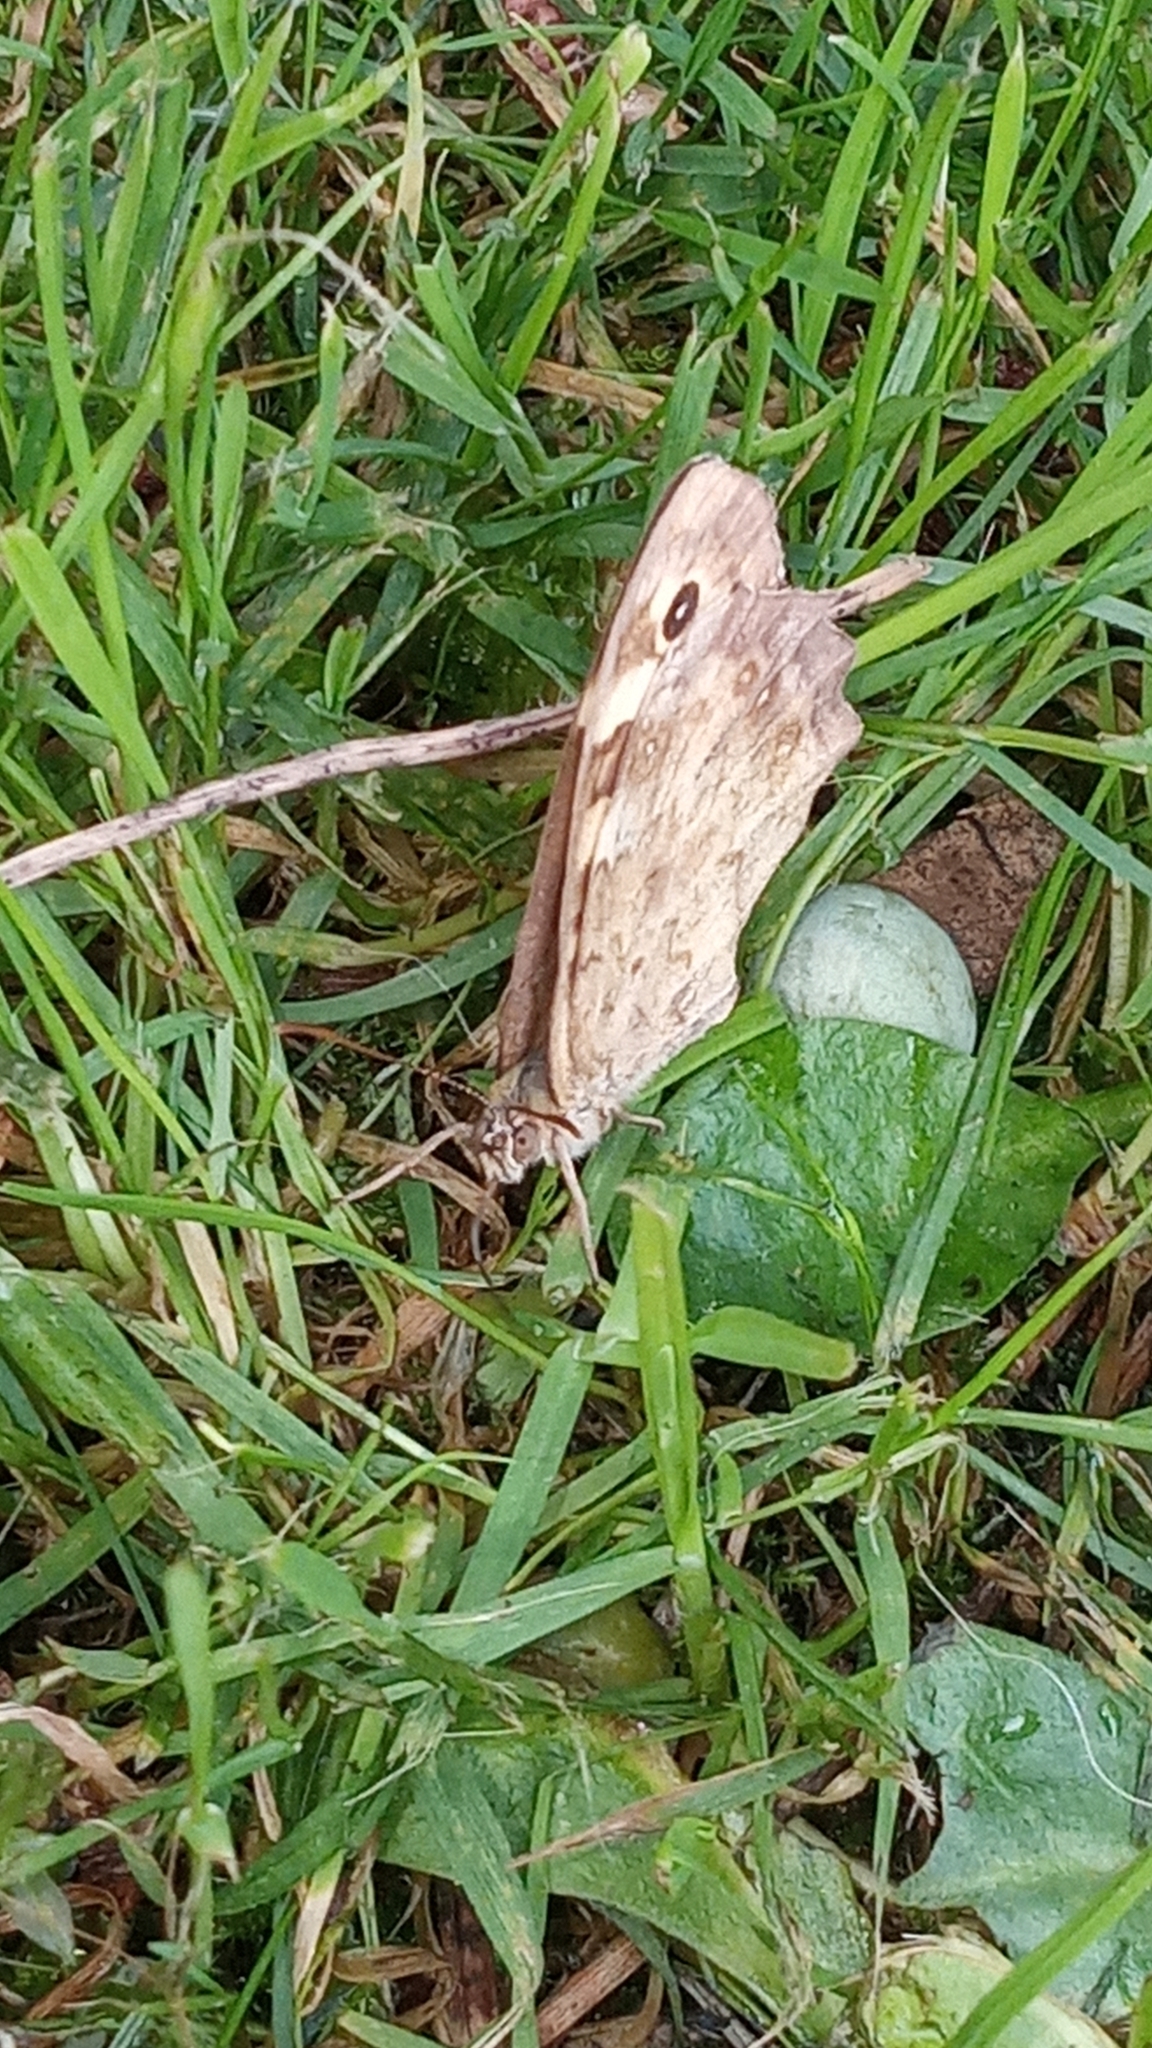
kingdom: Animalia
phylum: Arthropoda
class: Insecta
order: Lepidoptera
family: Nymphalidae
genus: Pararge
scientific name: Pararge aegeria
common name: Speckled wood
